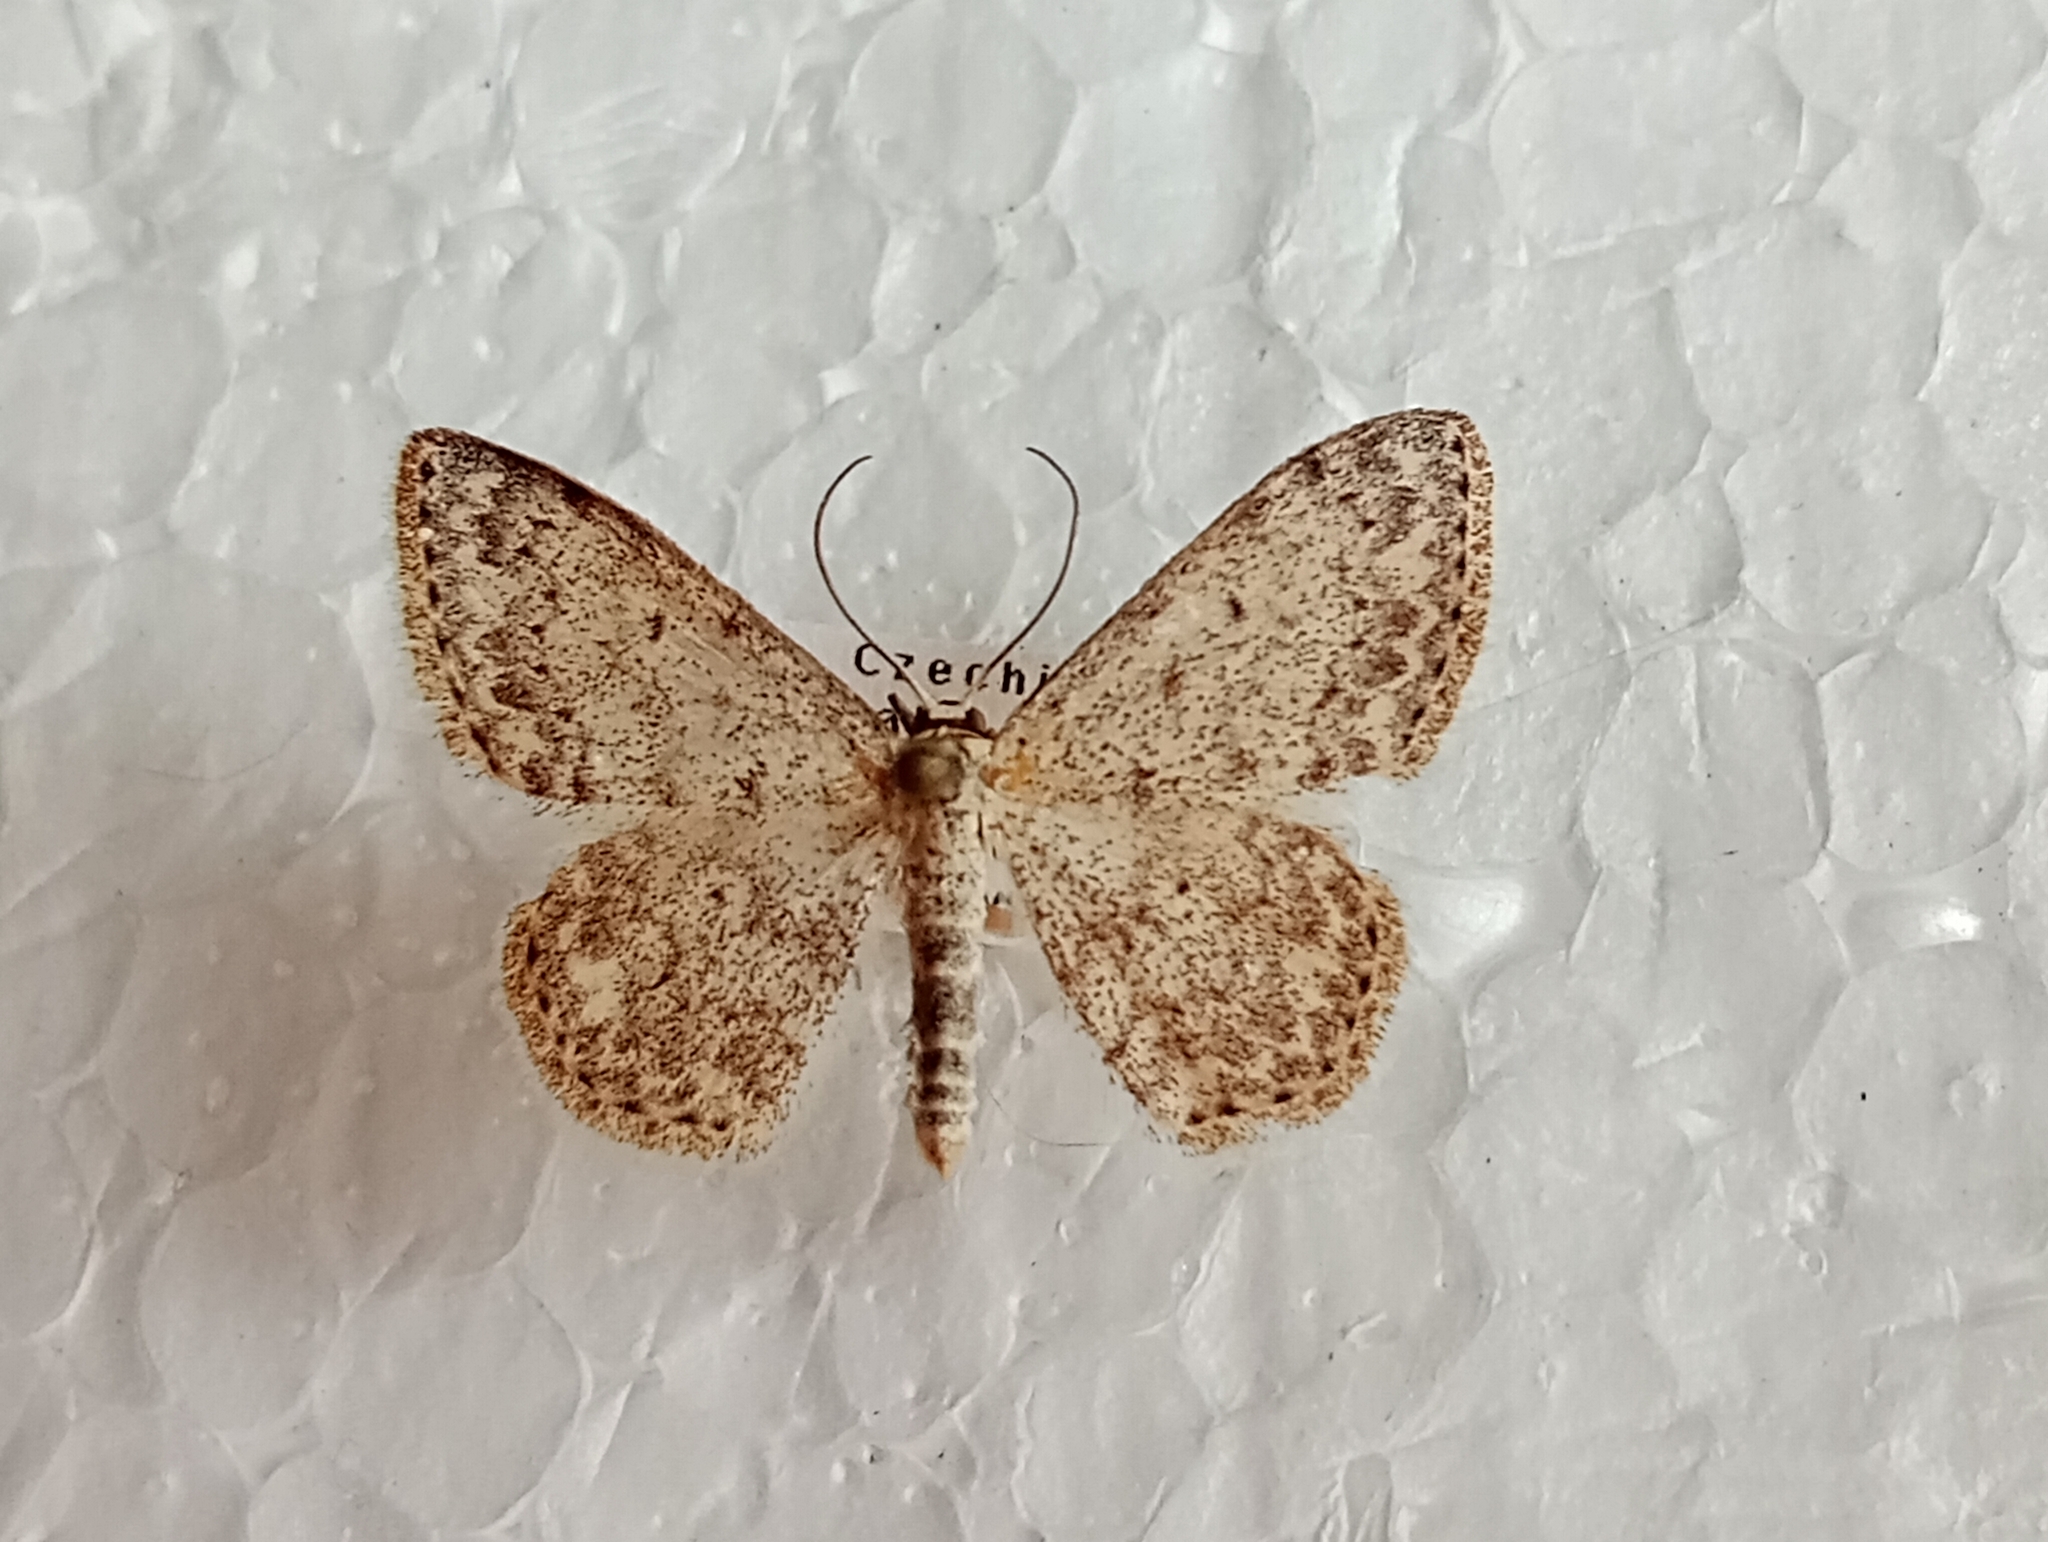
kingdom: Animalia
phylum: Arthropoda
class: Insecta
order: Lepidoptera
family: Geometridae
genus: Scopula
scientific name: Scopula marginepunctata
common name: Mullein wave
